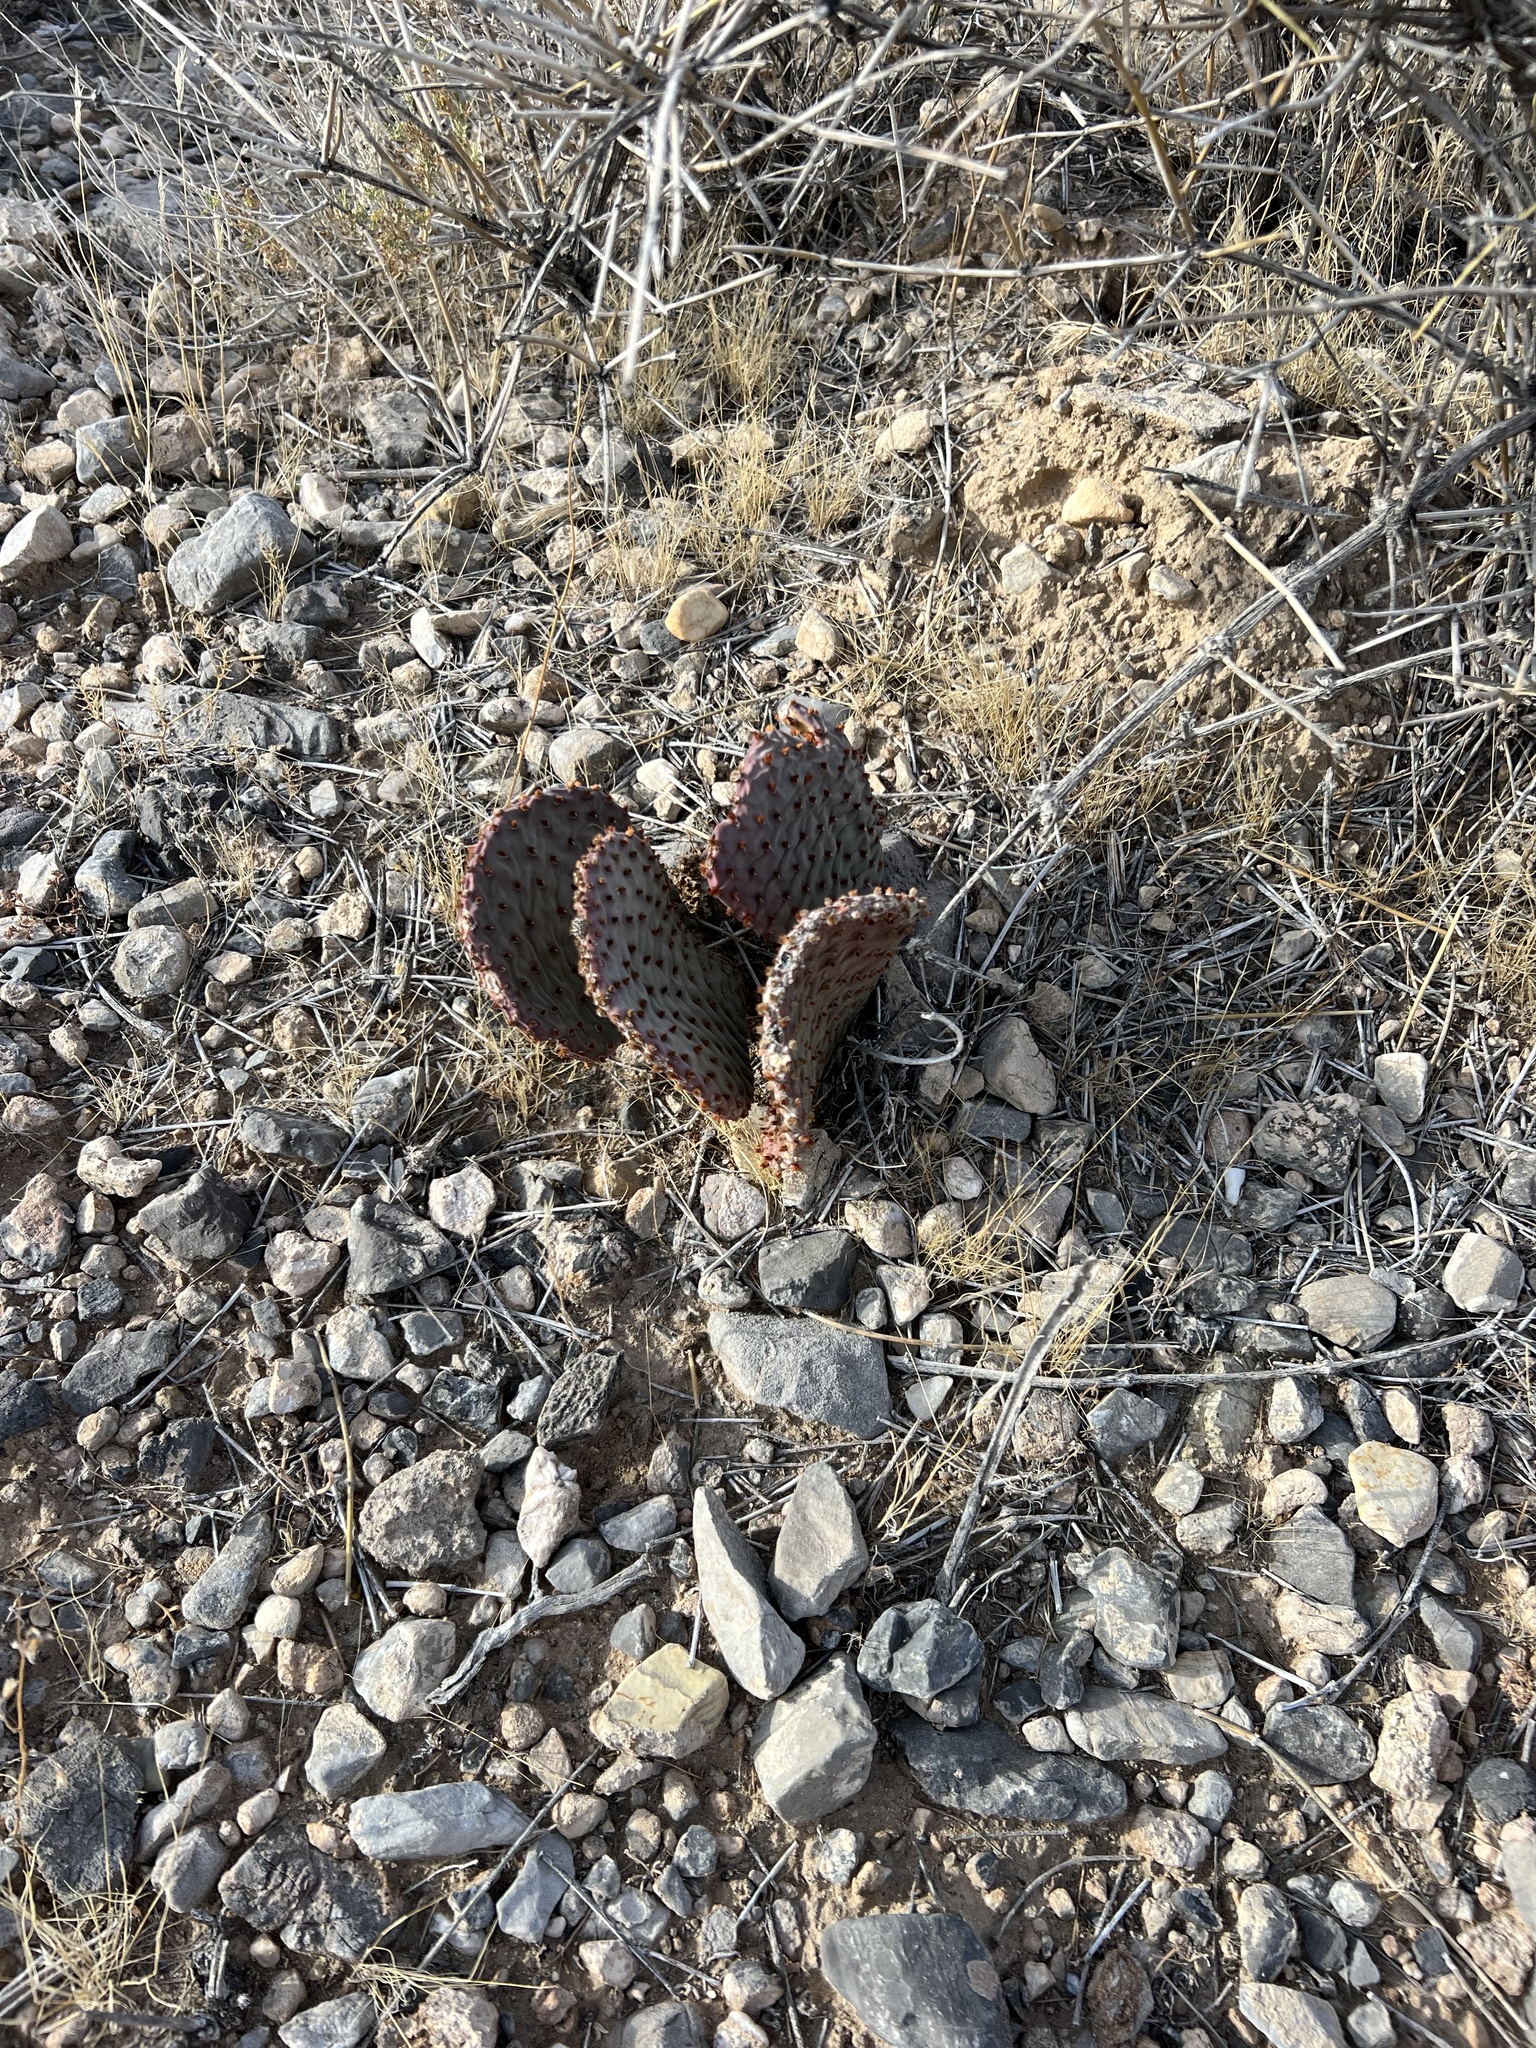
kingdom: Plantae
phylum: Tracheophyta
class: Magnoliopsida
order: Caryophyllales
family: Cactaceae
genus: Opuntia
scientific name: Opuntia basilaris
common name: Beavertail prickly-pear
